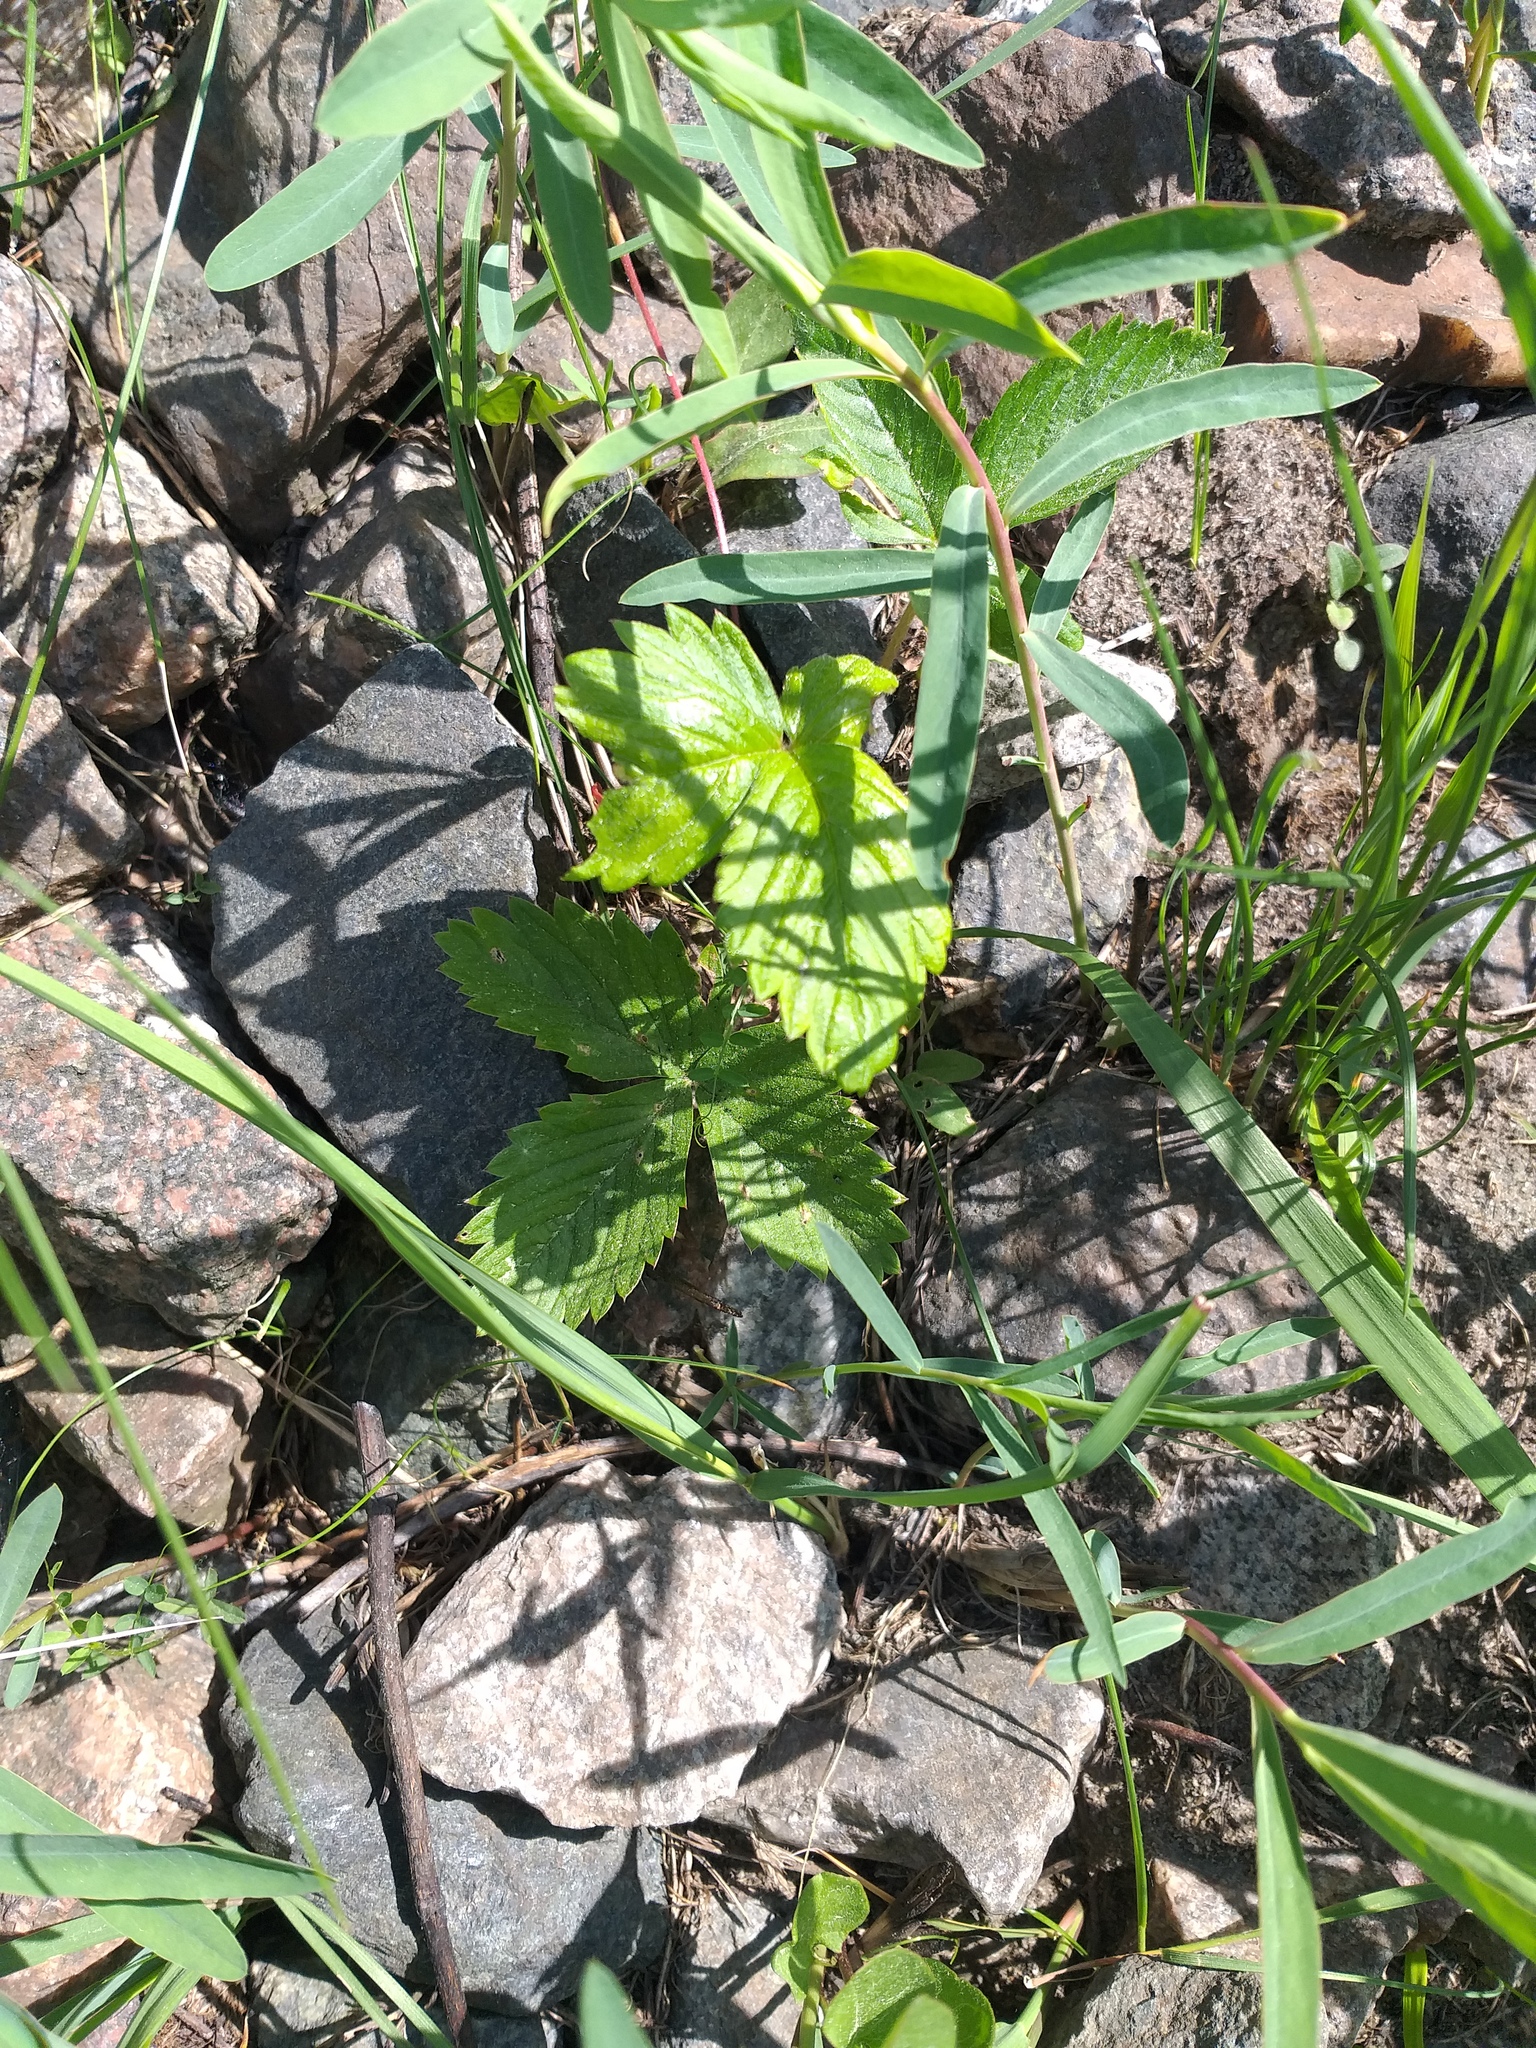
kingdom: Plantae
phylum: Tracheophyta
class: Magnoliopsida
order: Rosales
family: Rosaceae
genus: Fragaria
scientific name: Fragaria vesca
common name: Wild strawberry
